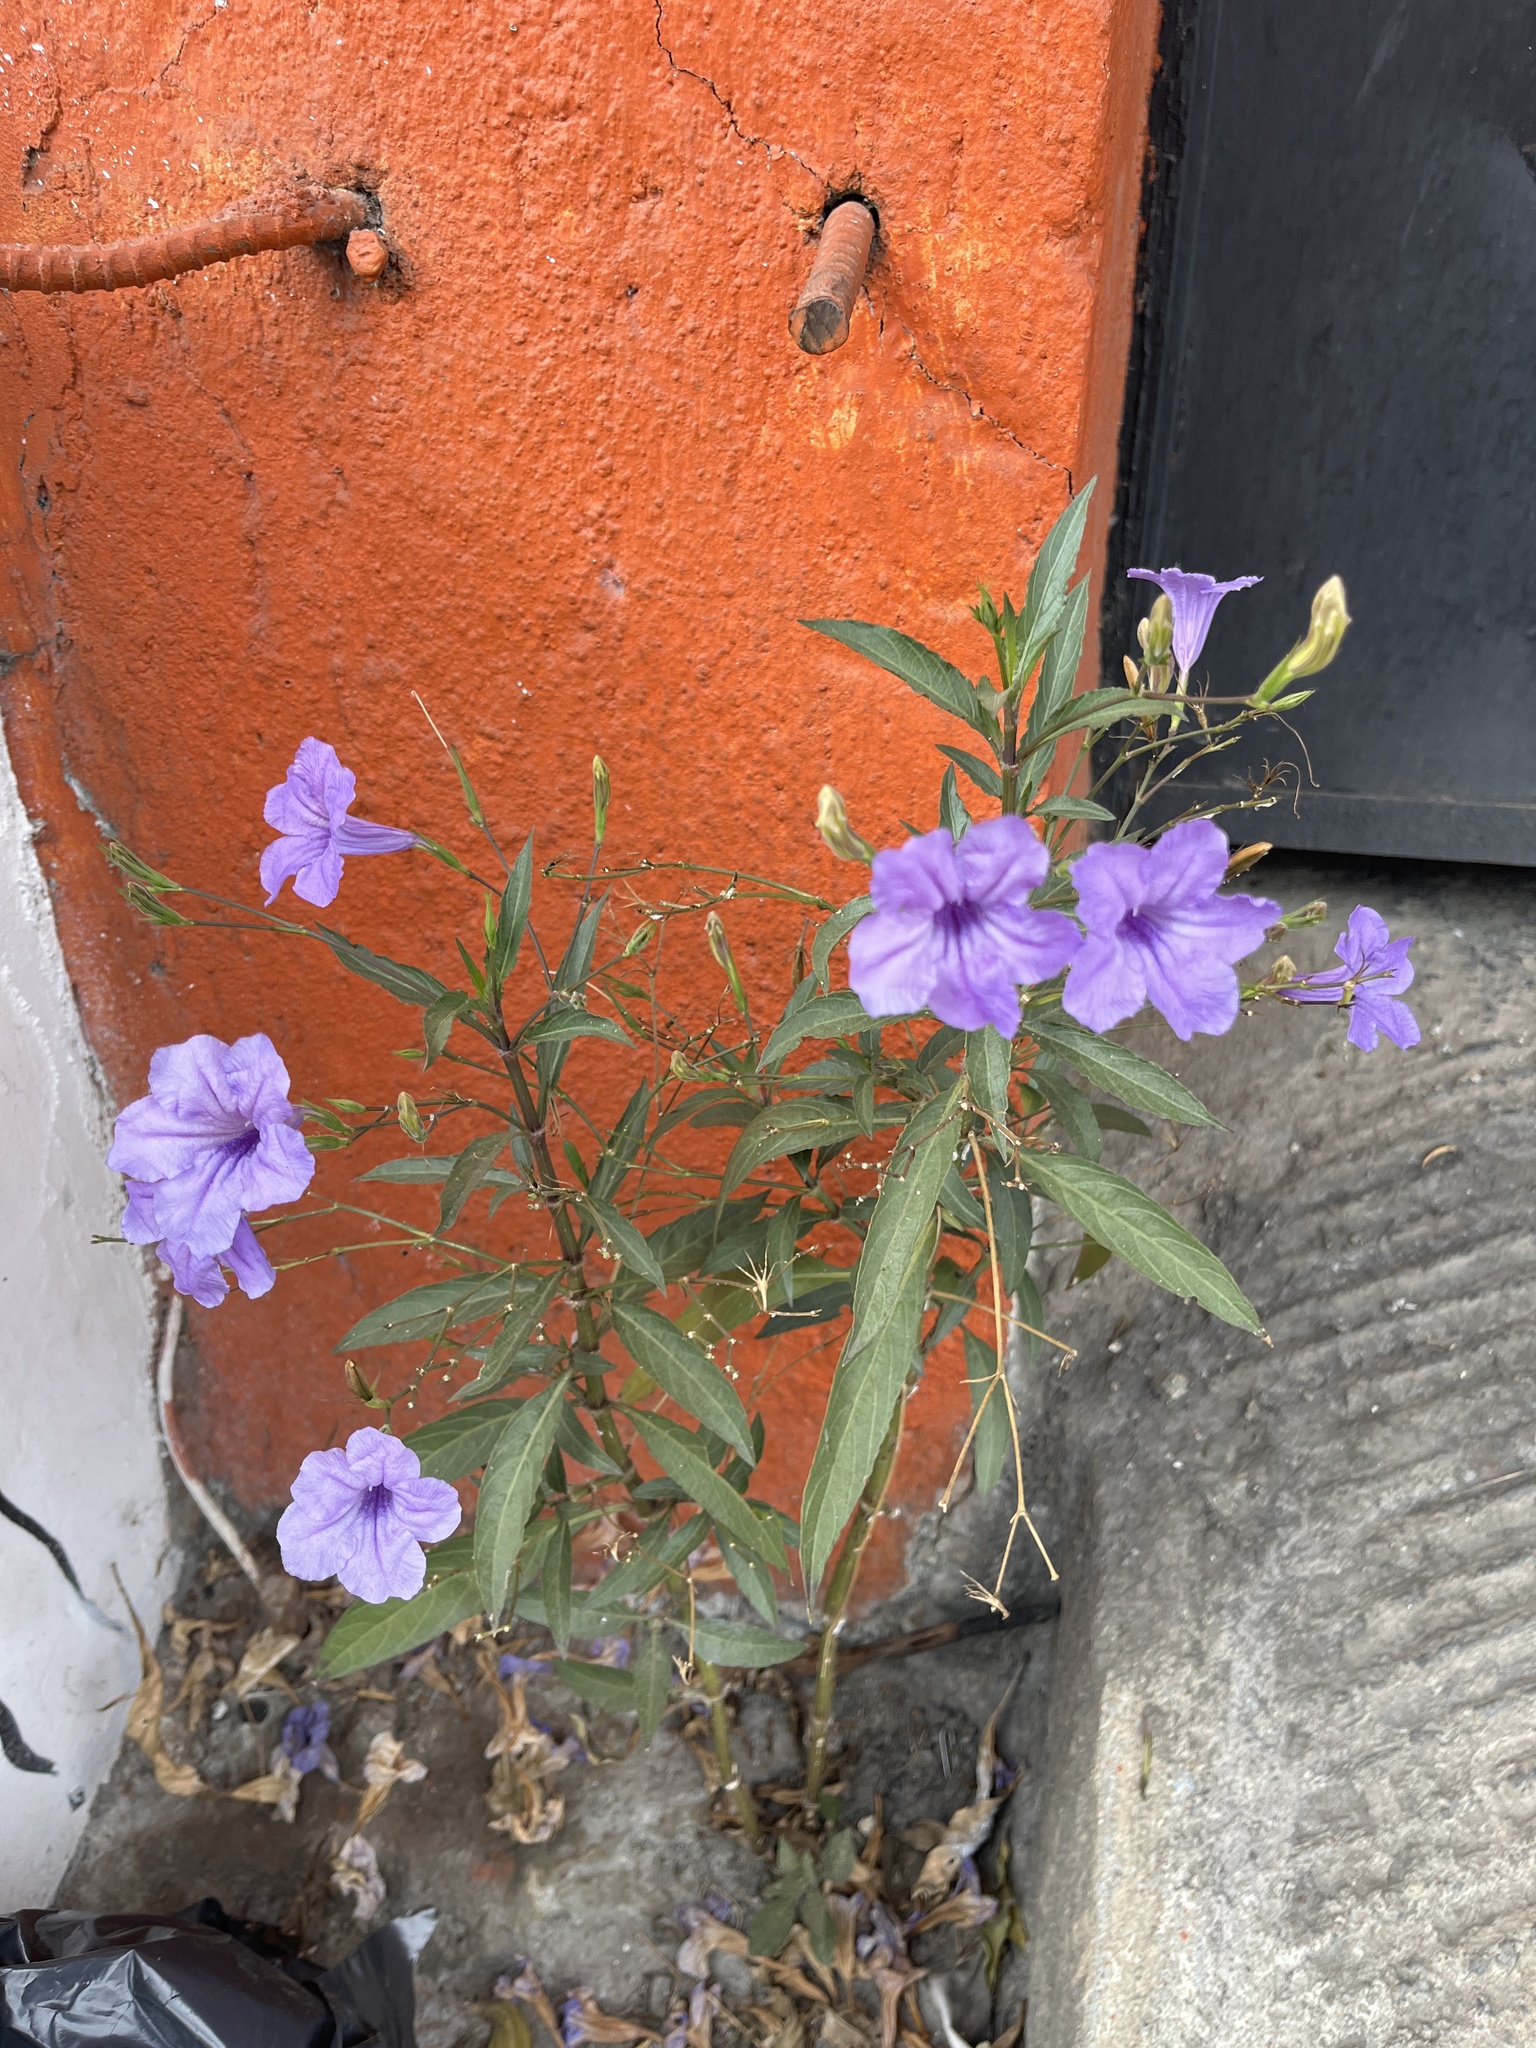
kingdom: Plantae
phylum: Tracheophyta
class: Magnoliopsida
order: Lamiales
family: Acanthaceae
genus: Ruellia
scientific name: Ruellia simplex
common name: Softseed wild petunia
